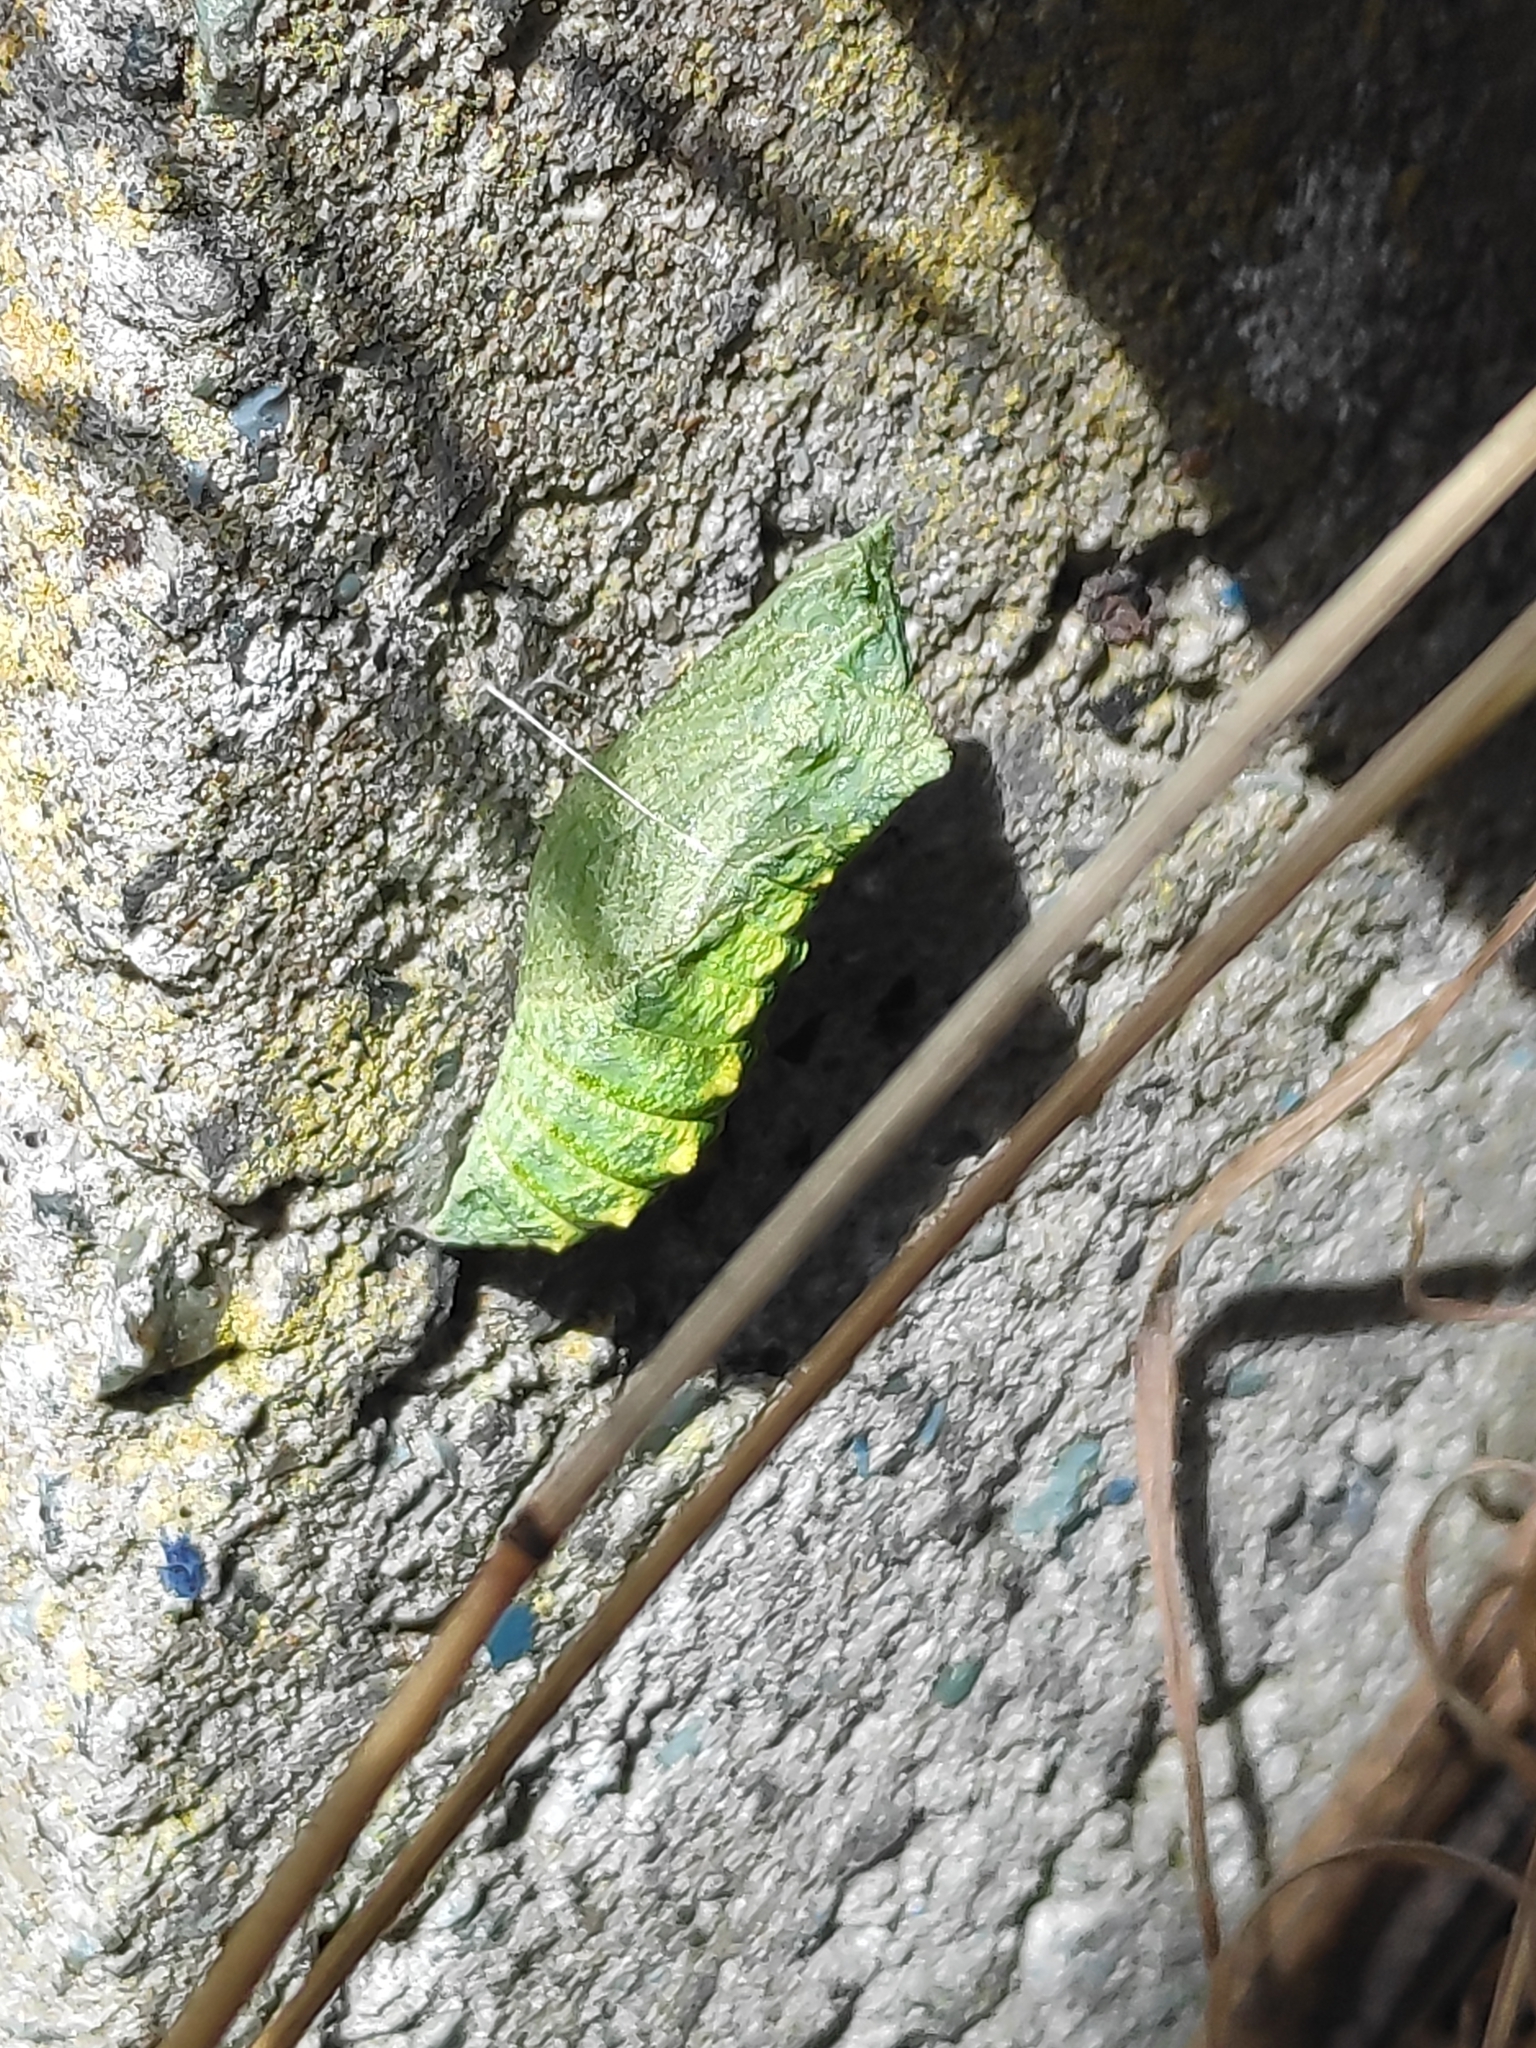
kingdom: Animalia
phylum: Arthropoda
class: Insecta
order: Lepidoptera
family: Papilionidae
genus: Papilio
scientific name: Papilio machaon
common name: Swallowtail
